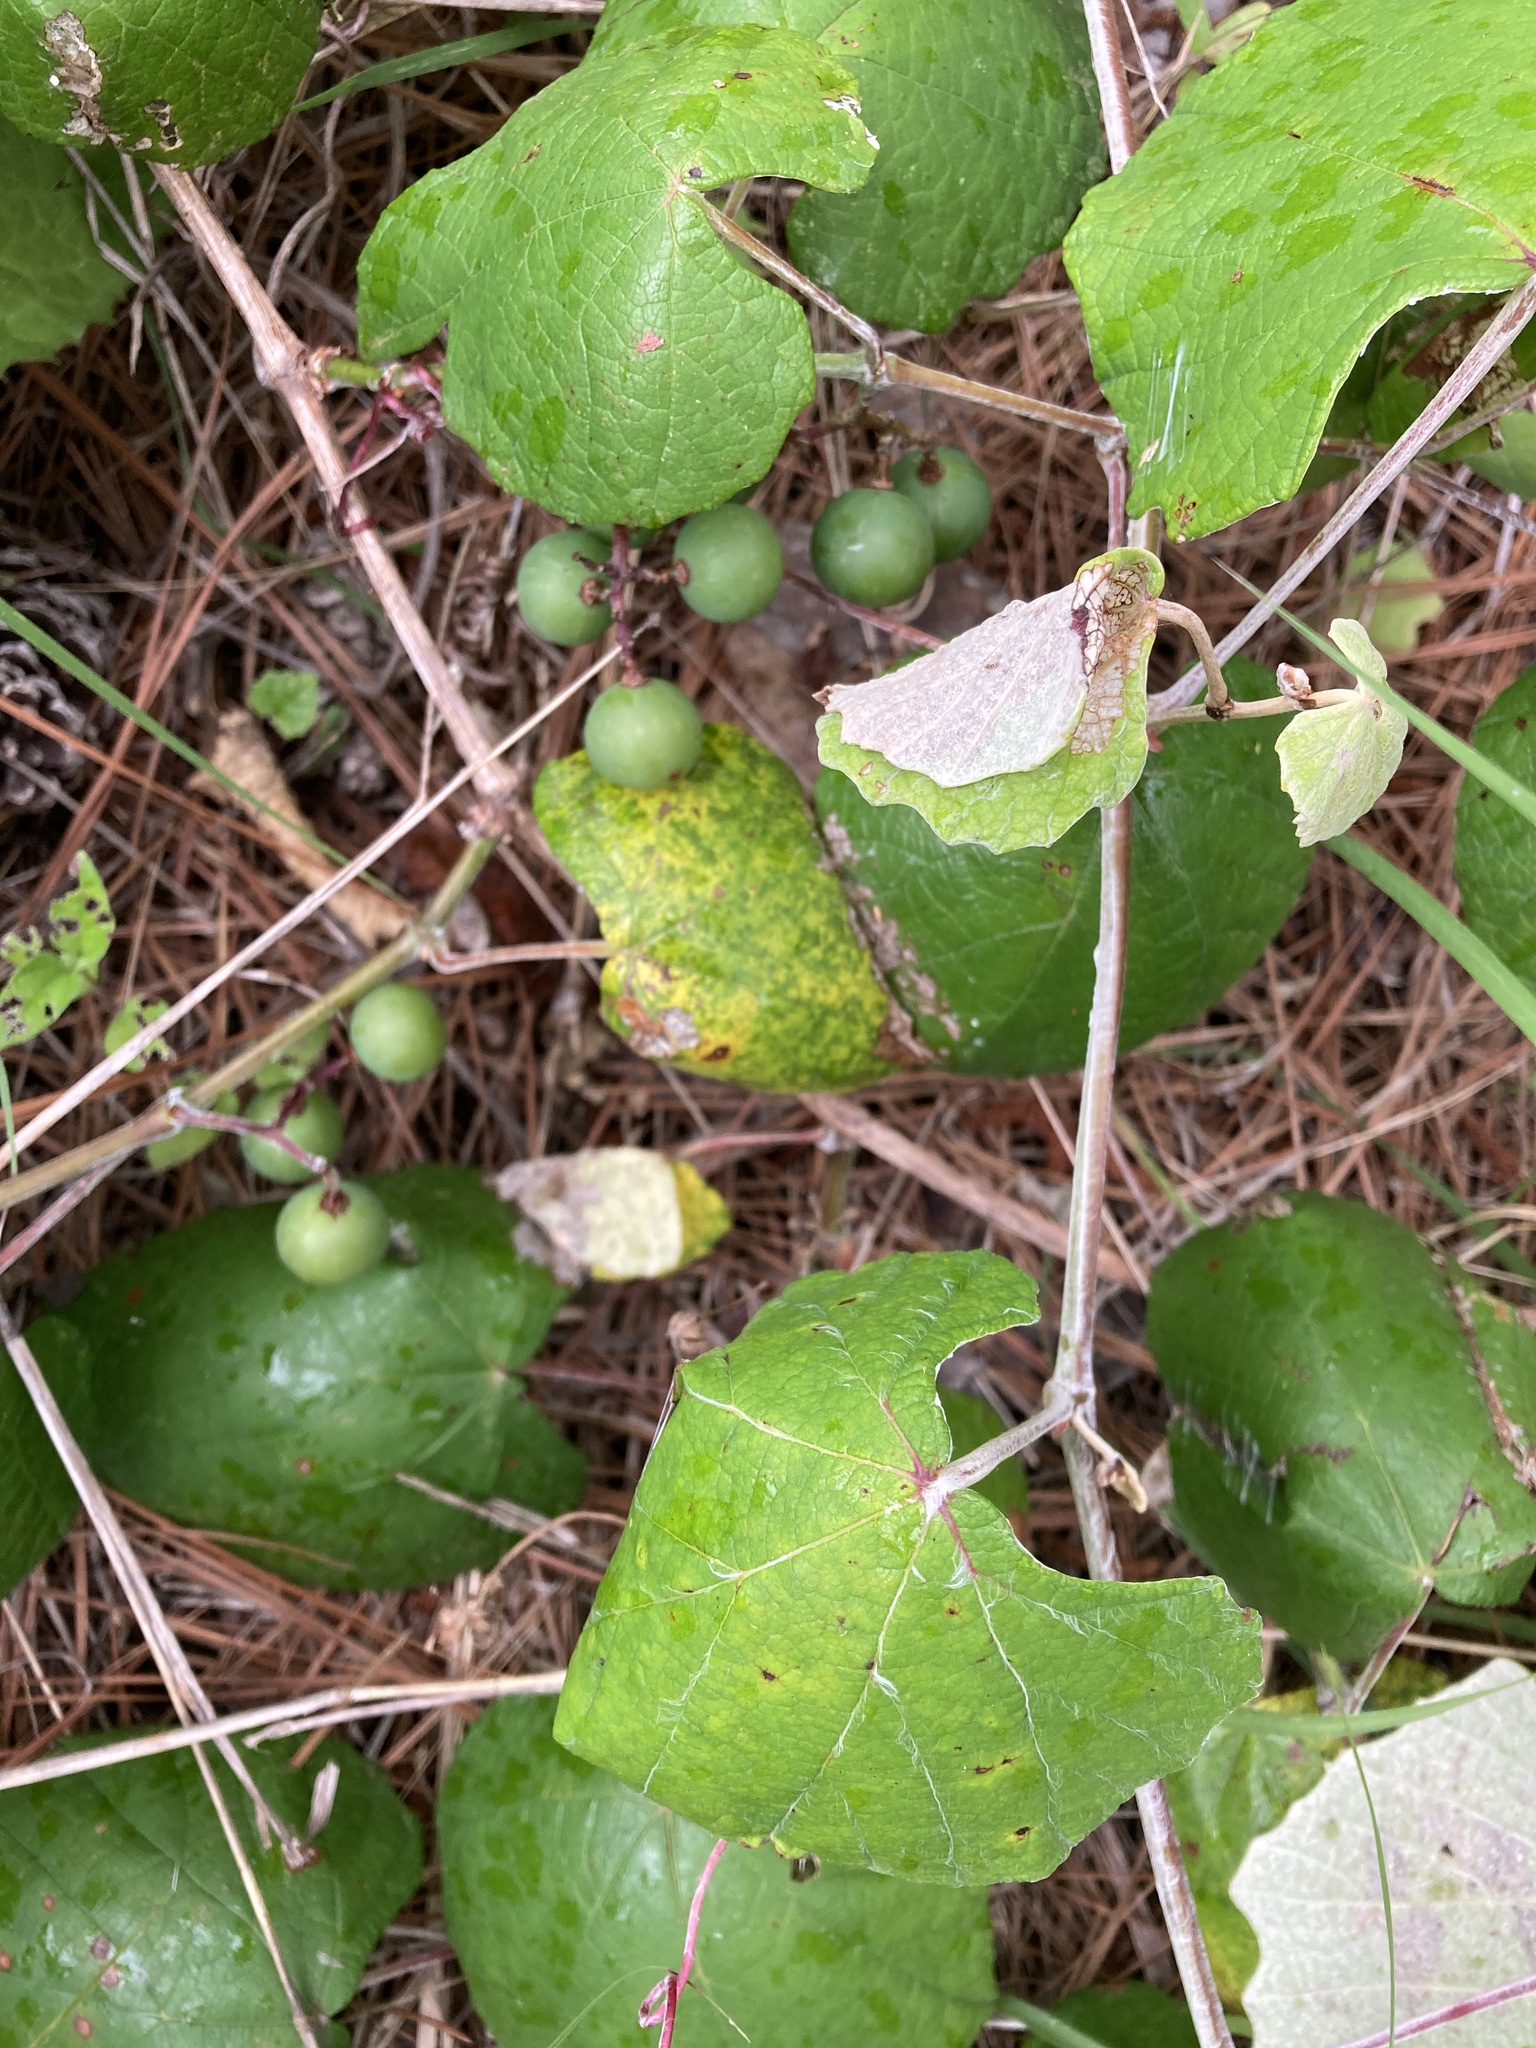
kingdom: Plantae
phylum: Tracheophyta
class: Magnoliopsida
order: Vitales
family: Vitaceae
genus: Vitis
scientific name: Vitis mustangensis
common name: Mustang grape
